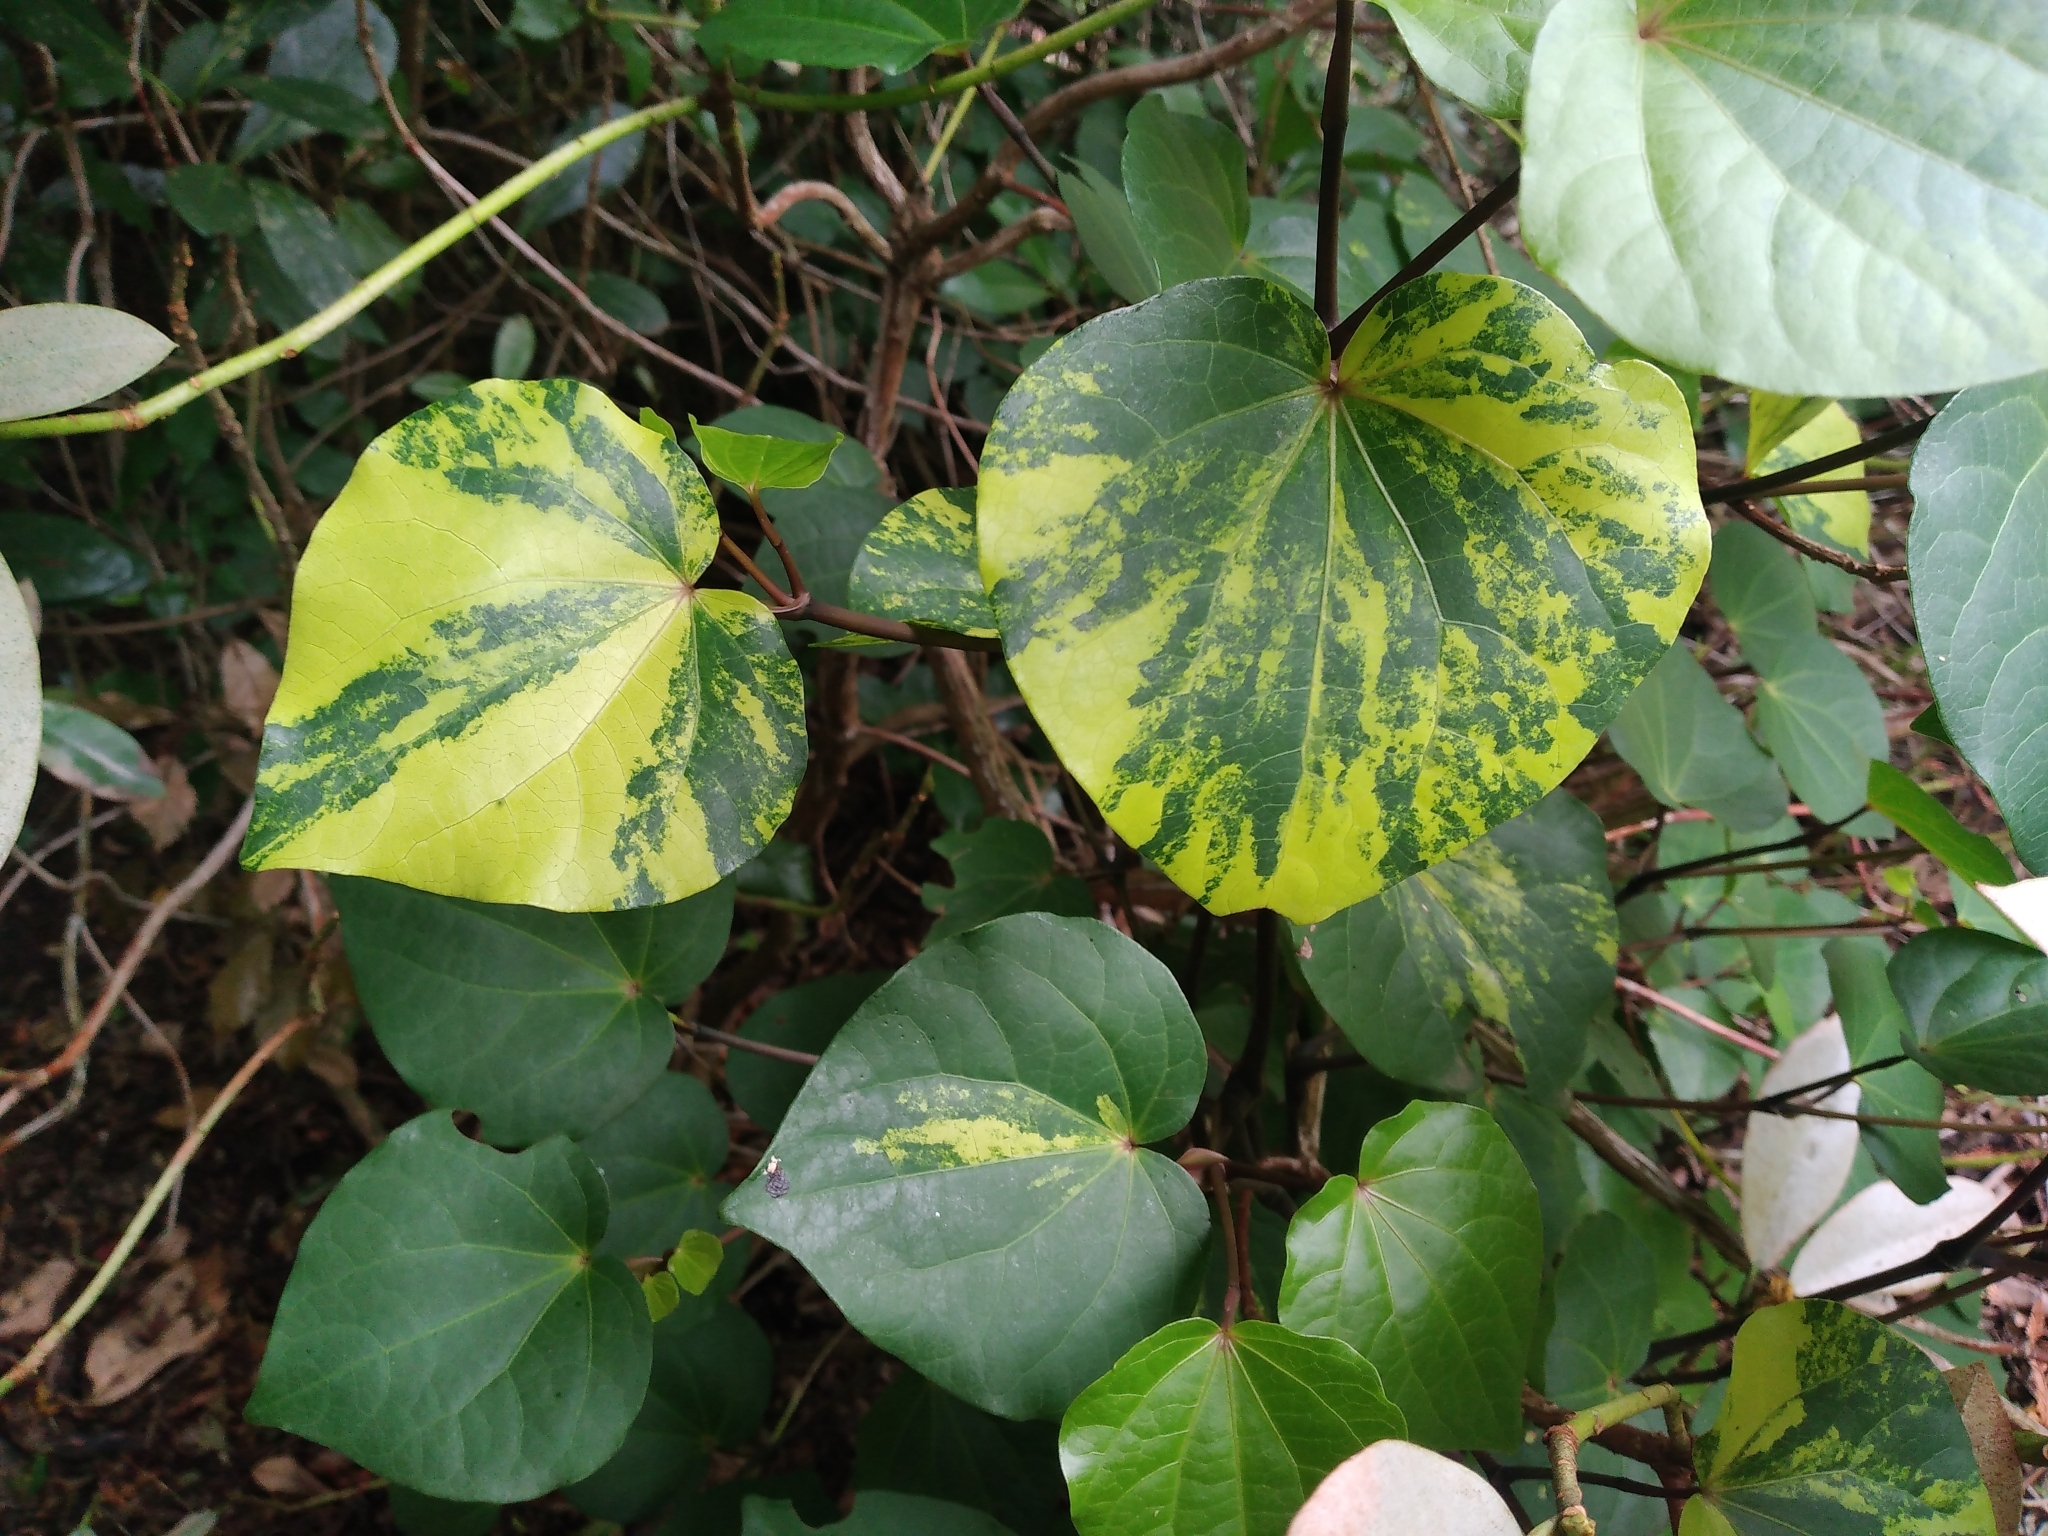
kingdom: Plantae
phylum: Tracheophyta
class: Magnoliopsida
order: Piperales
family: Piperaceae
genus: Macropiper
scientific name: Macropiper excelsum
